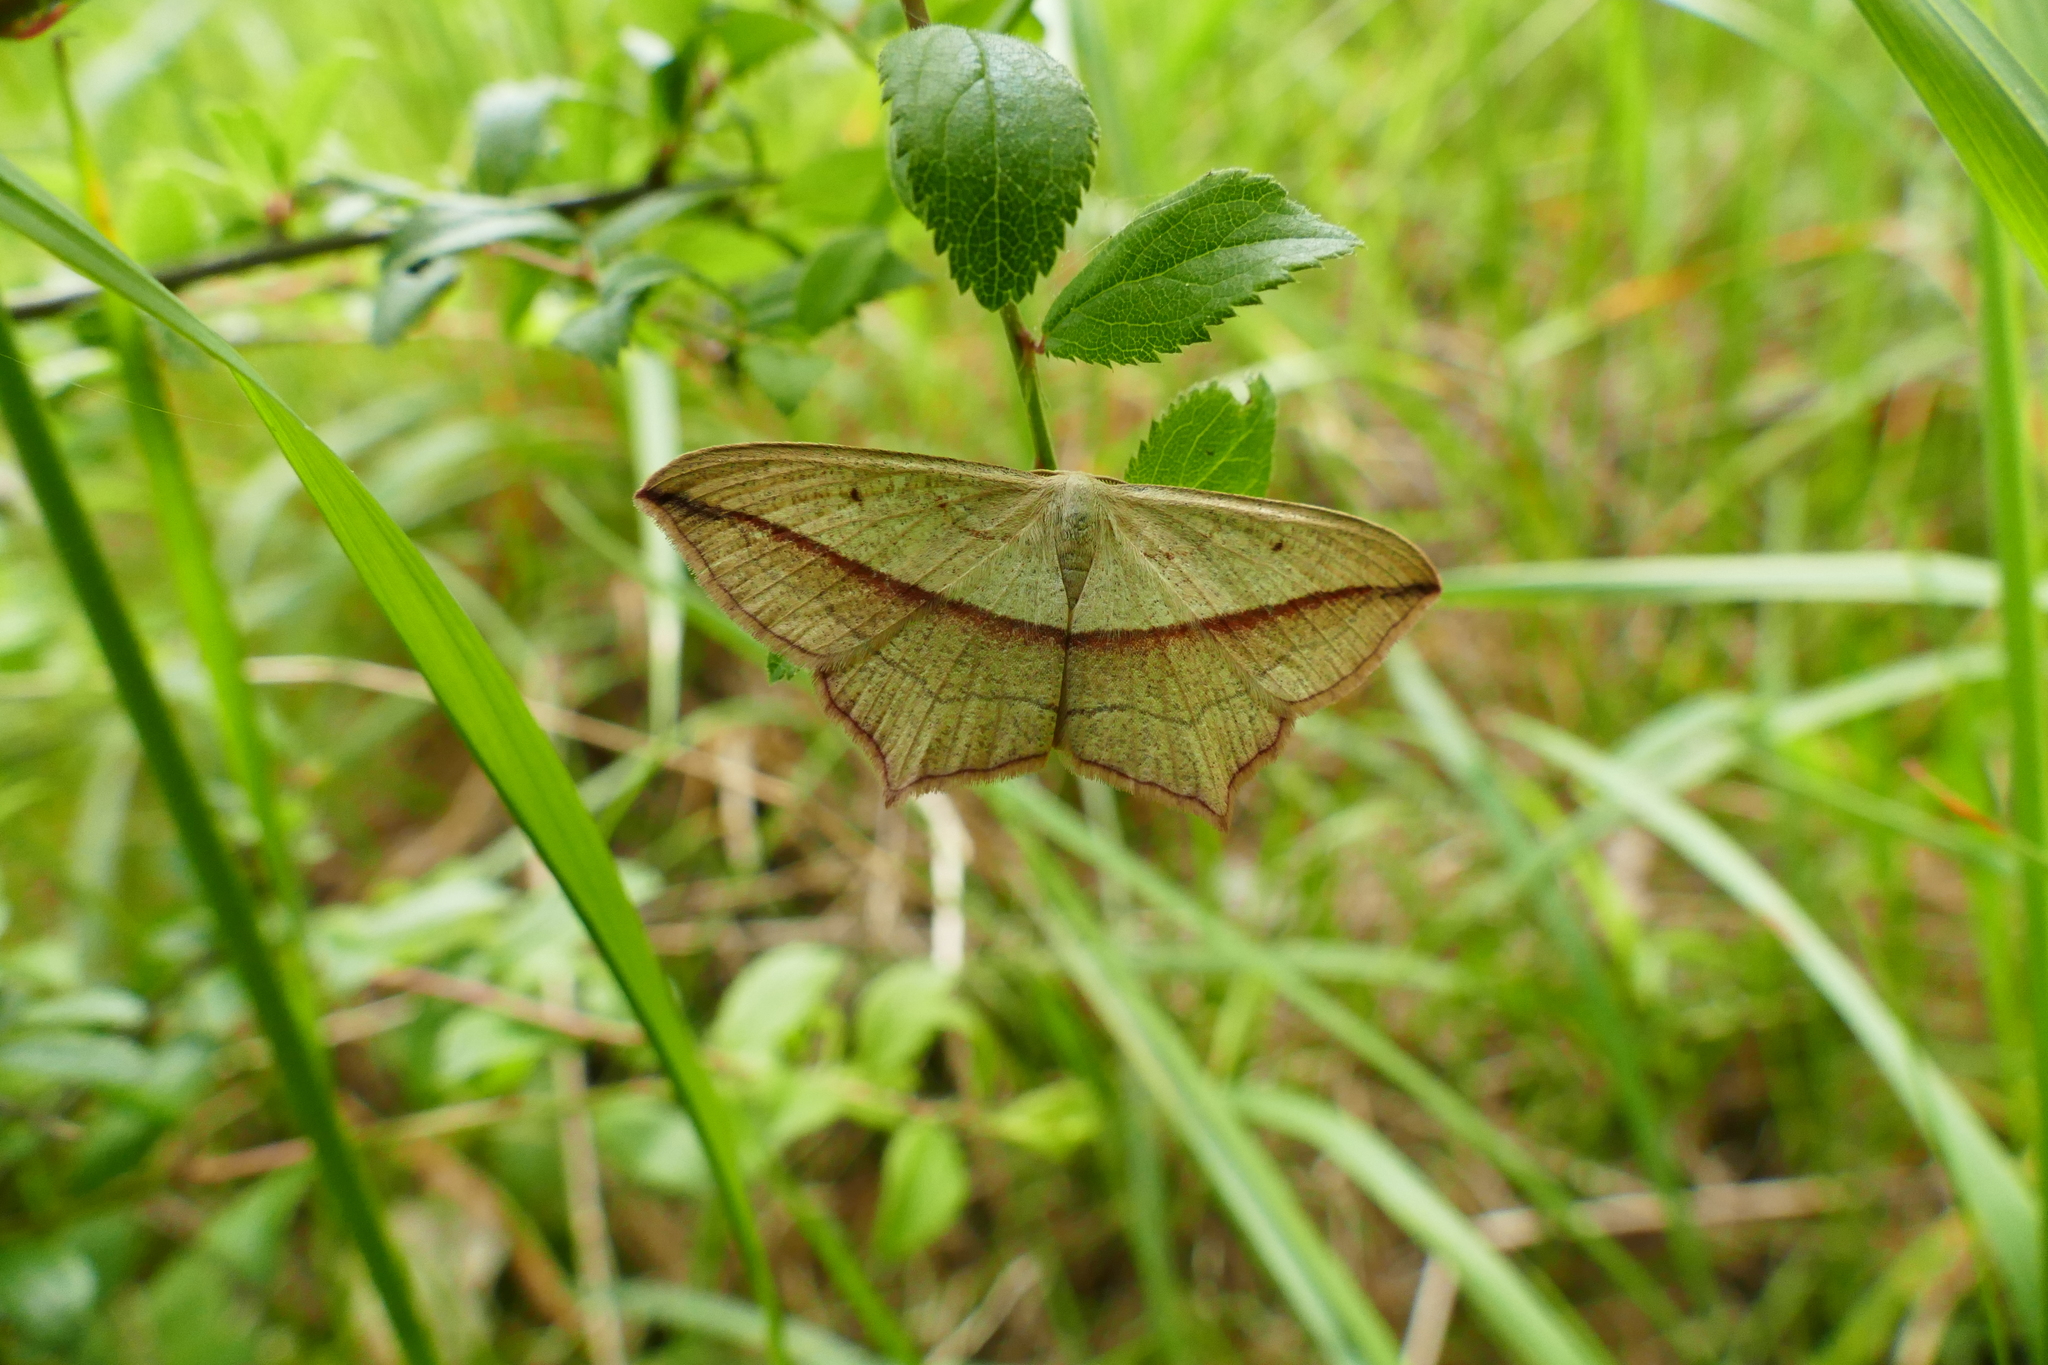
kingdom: Animalia
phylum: Arthropoda
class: Insecta
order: Lepidoptera
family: Geometridae
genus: Timandra
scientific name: Timandra comae
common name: Blood-vein
